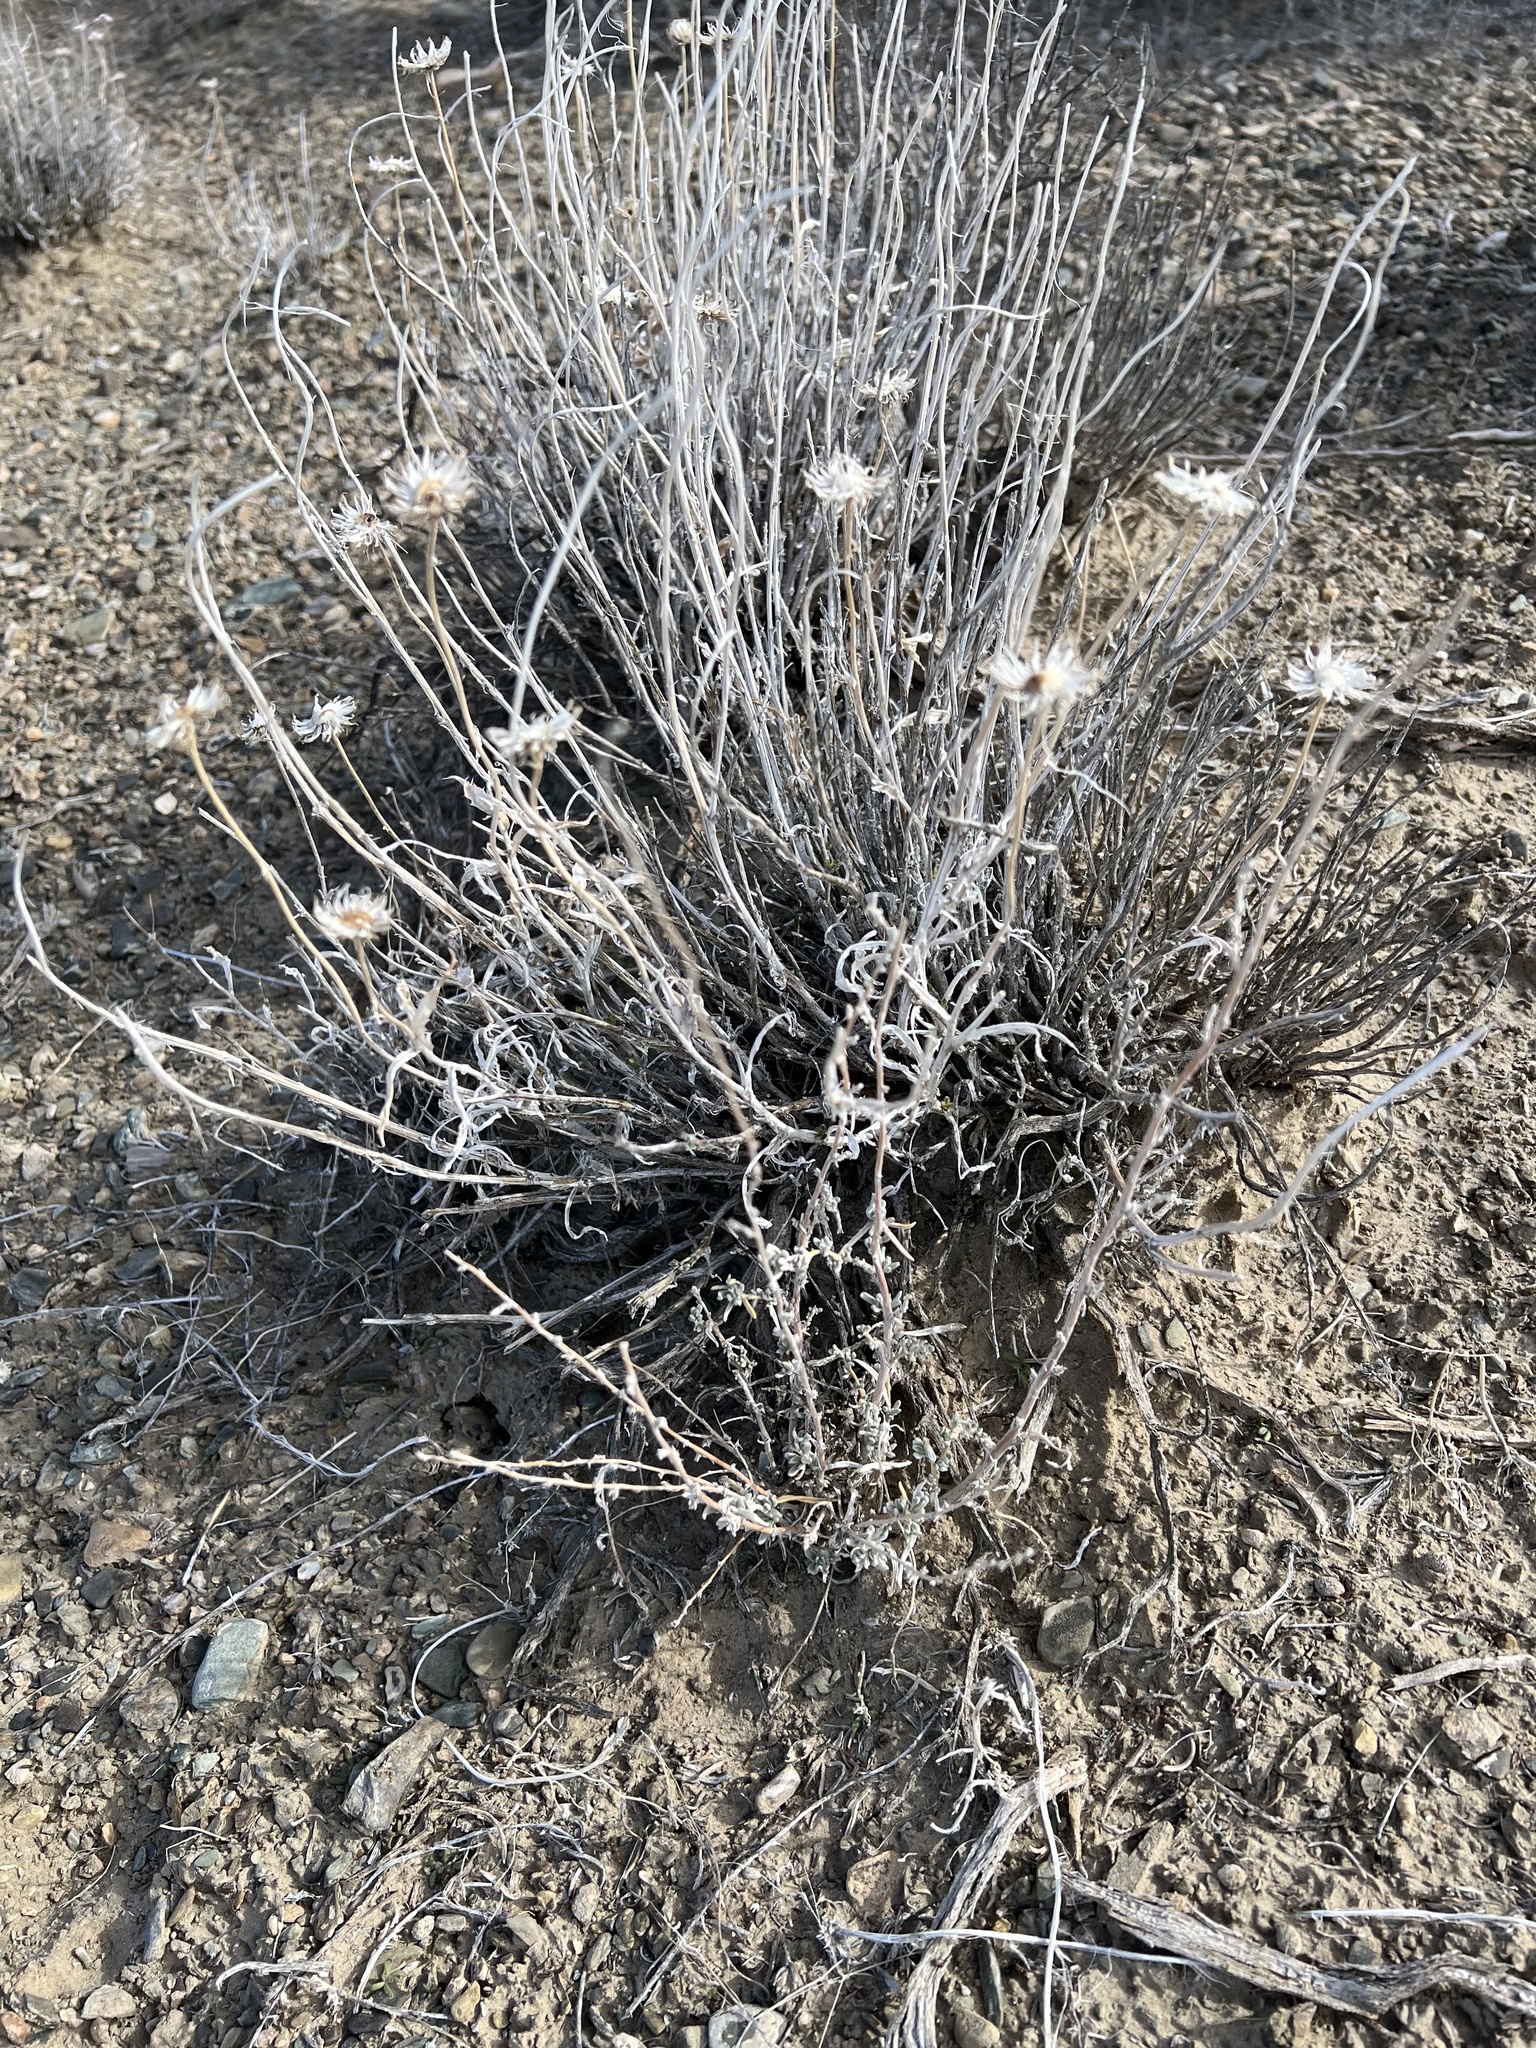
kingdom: Plantae
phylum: Tracheophyta
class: Magnoliopsida
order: Asterales
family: Asteraceae
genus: Xylorhiza
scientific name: Xylorhiza tortifolia
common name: Hurt-leaf woody-aster
